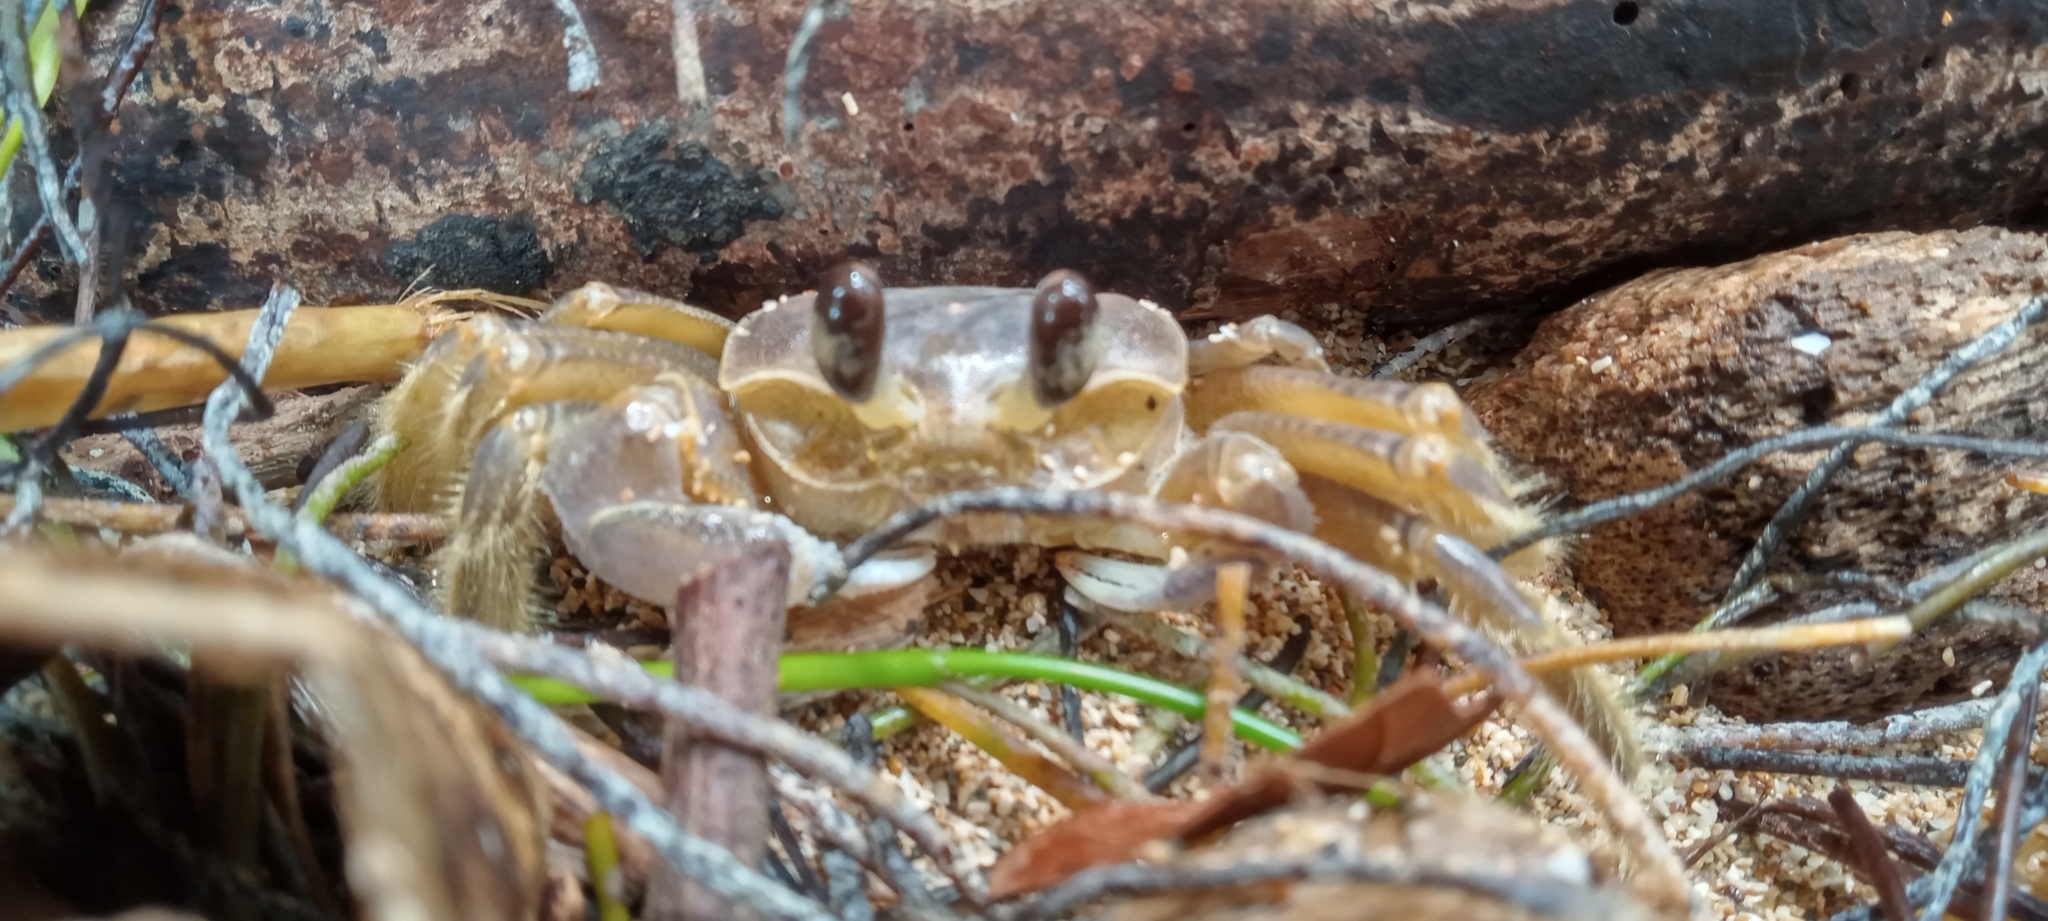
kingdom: Animalia
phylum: Arthropoda
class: Malacostraca
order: Decapoda
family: Ocypodidae
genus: Ocypode
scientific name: Ocypode quadrata
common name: Ghost crab
